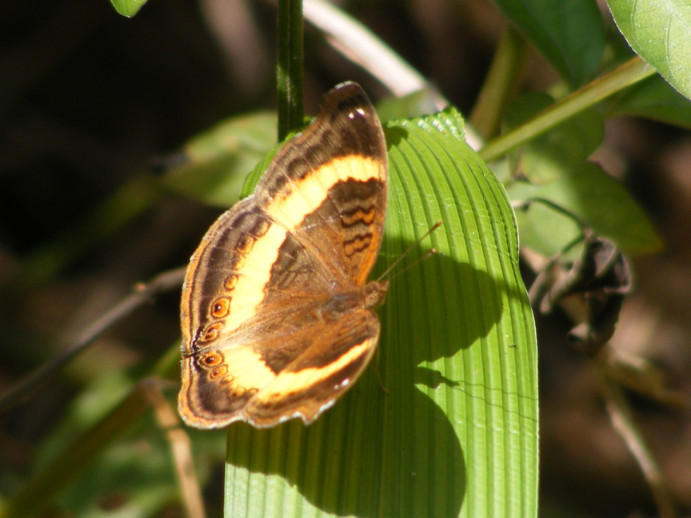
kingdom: Animalia
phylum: Arthropoda
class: Insecta
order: Lepidoptera
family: Nymphalidae
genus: Junonia
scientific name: Junonia terea
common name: Soldier pansy
